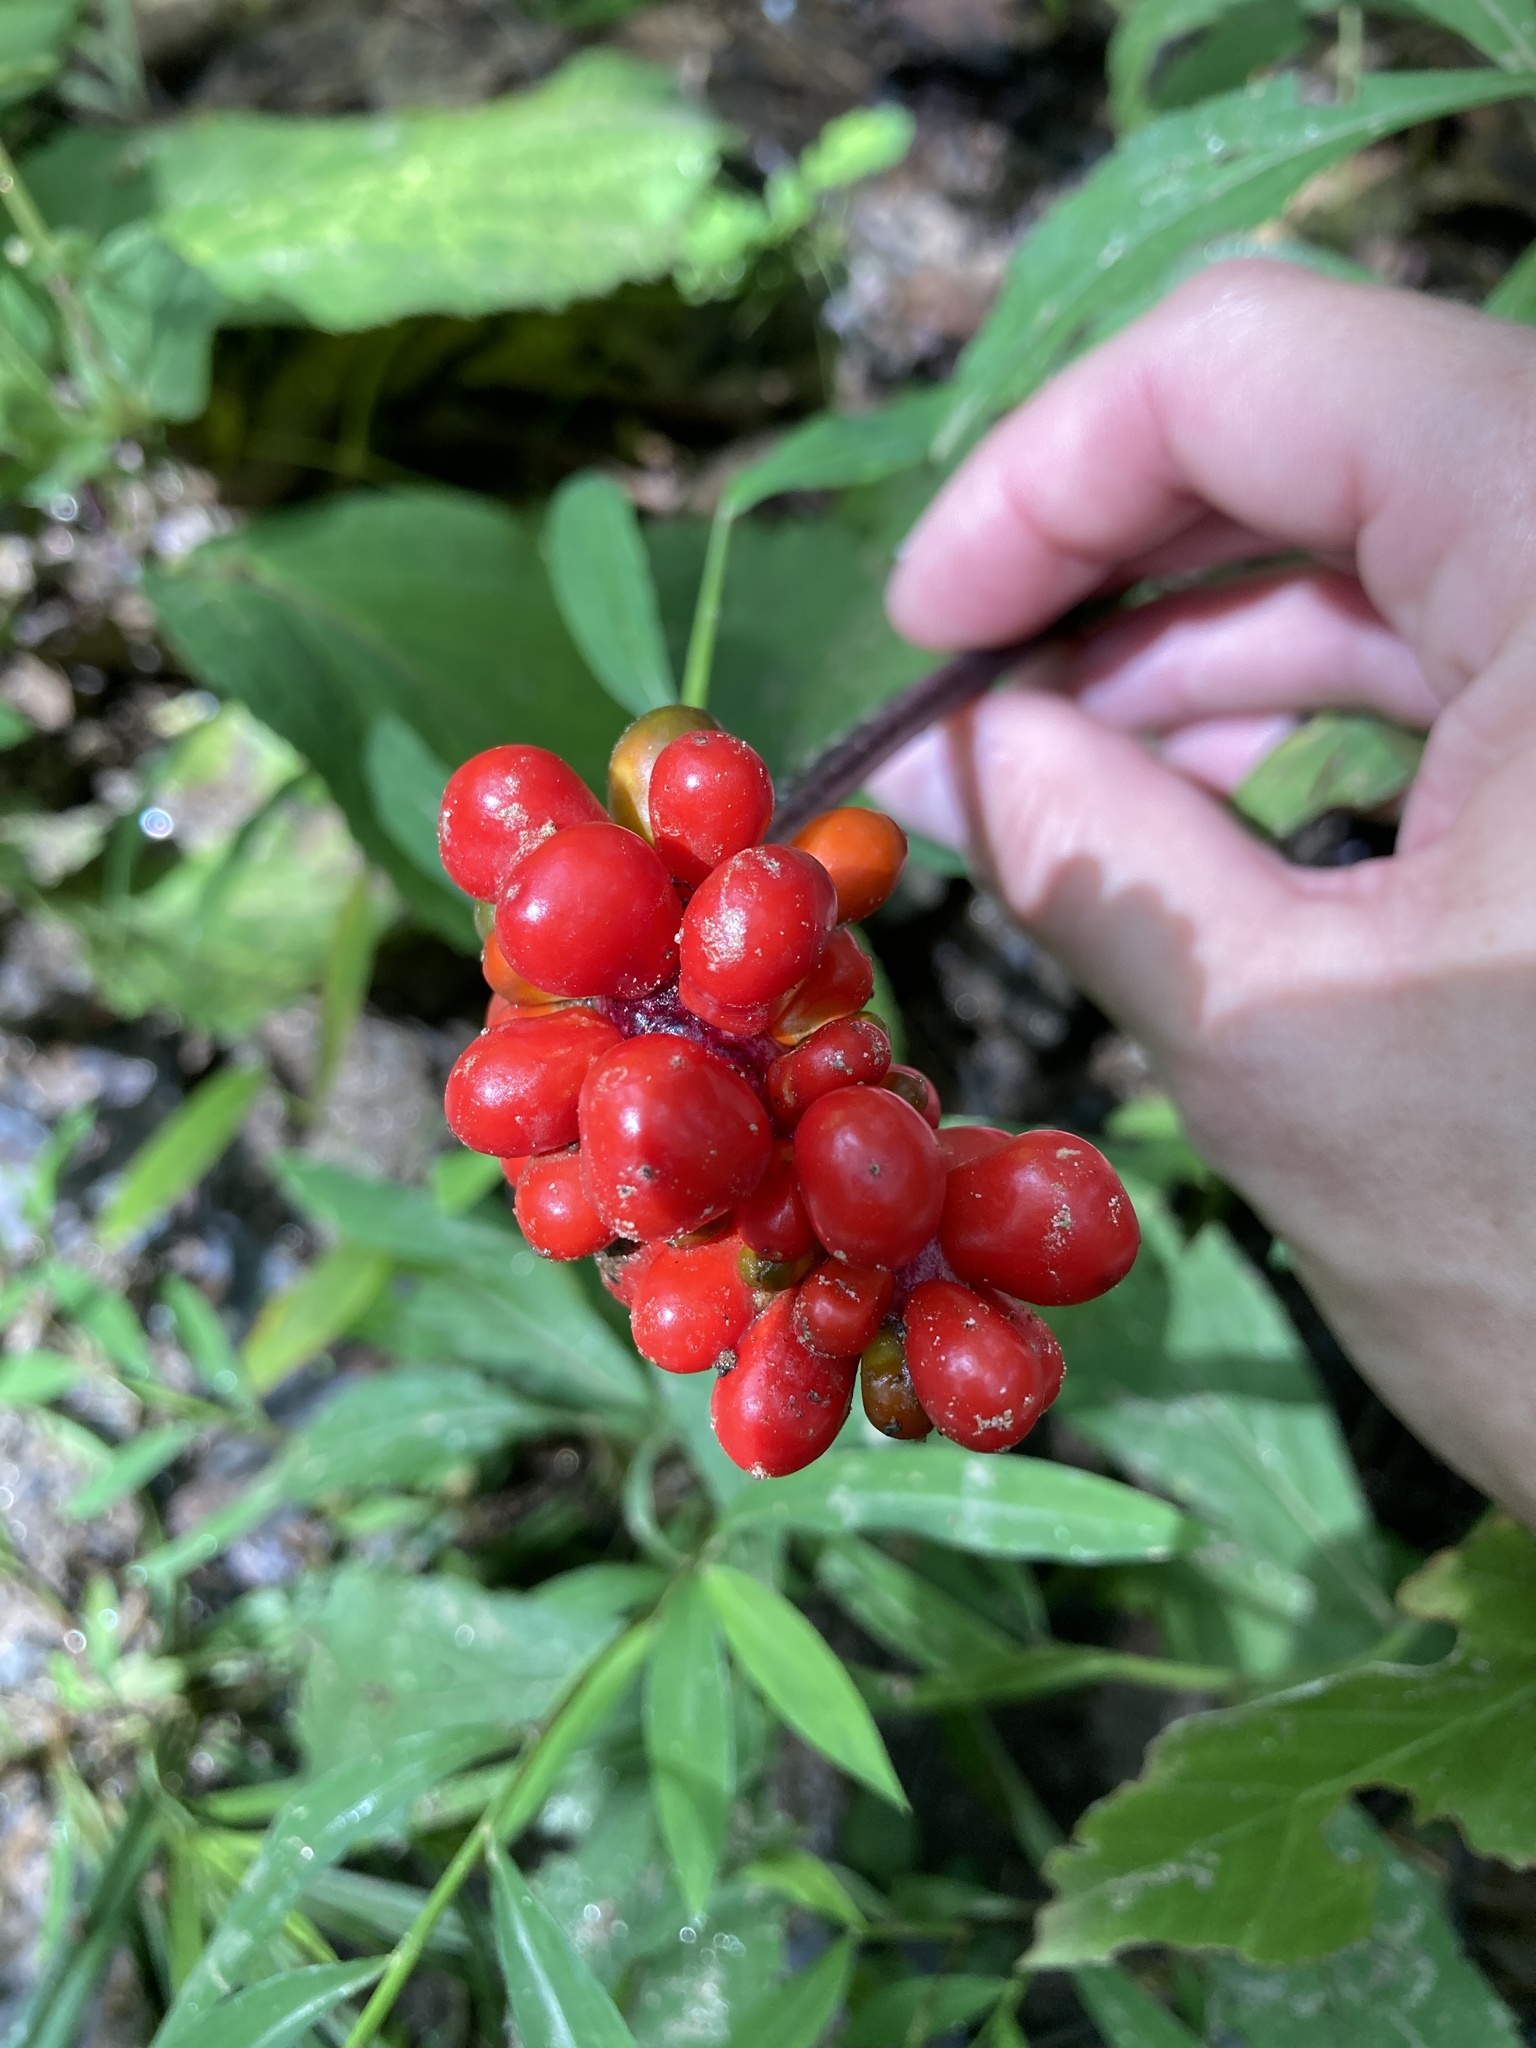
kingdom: Plantae
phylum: Tracheophyta
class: Liliopsida
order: Alismatales
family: Araceae
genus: Arisaema
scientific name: Arisaema triphyllum
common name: Jack-in-the-pulpit
